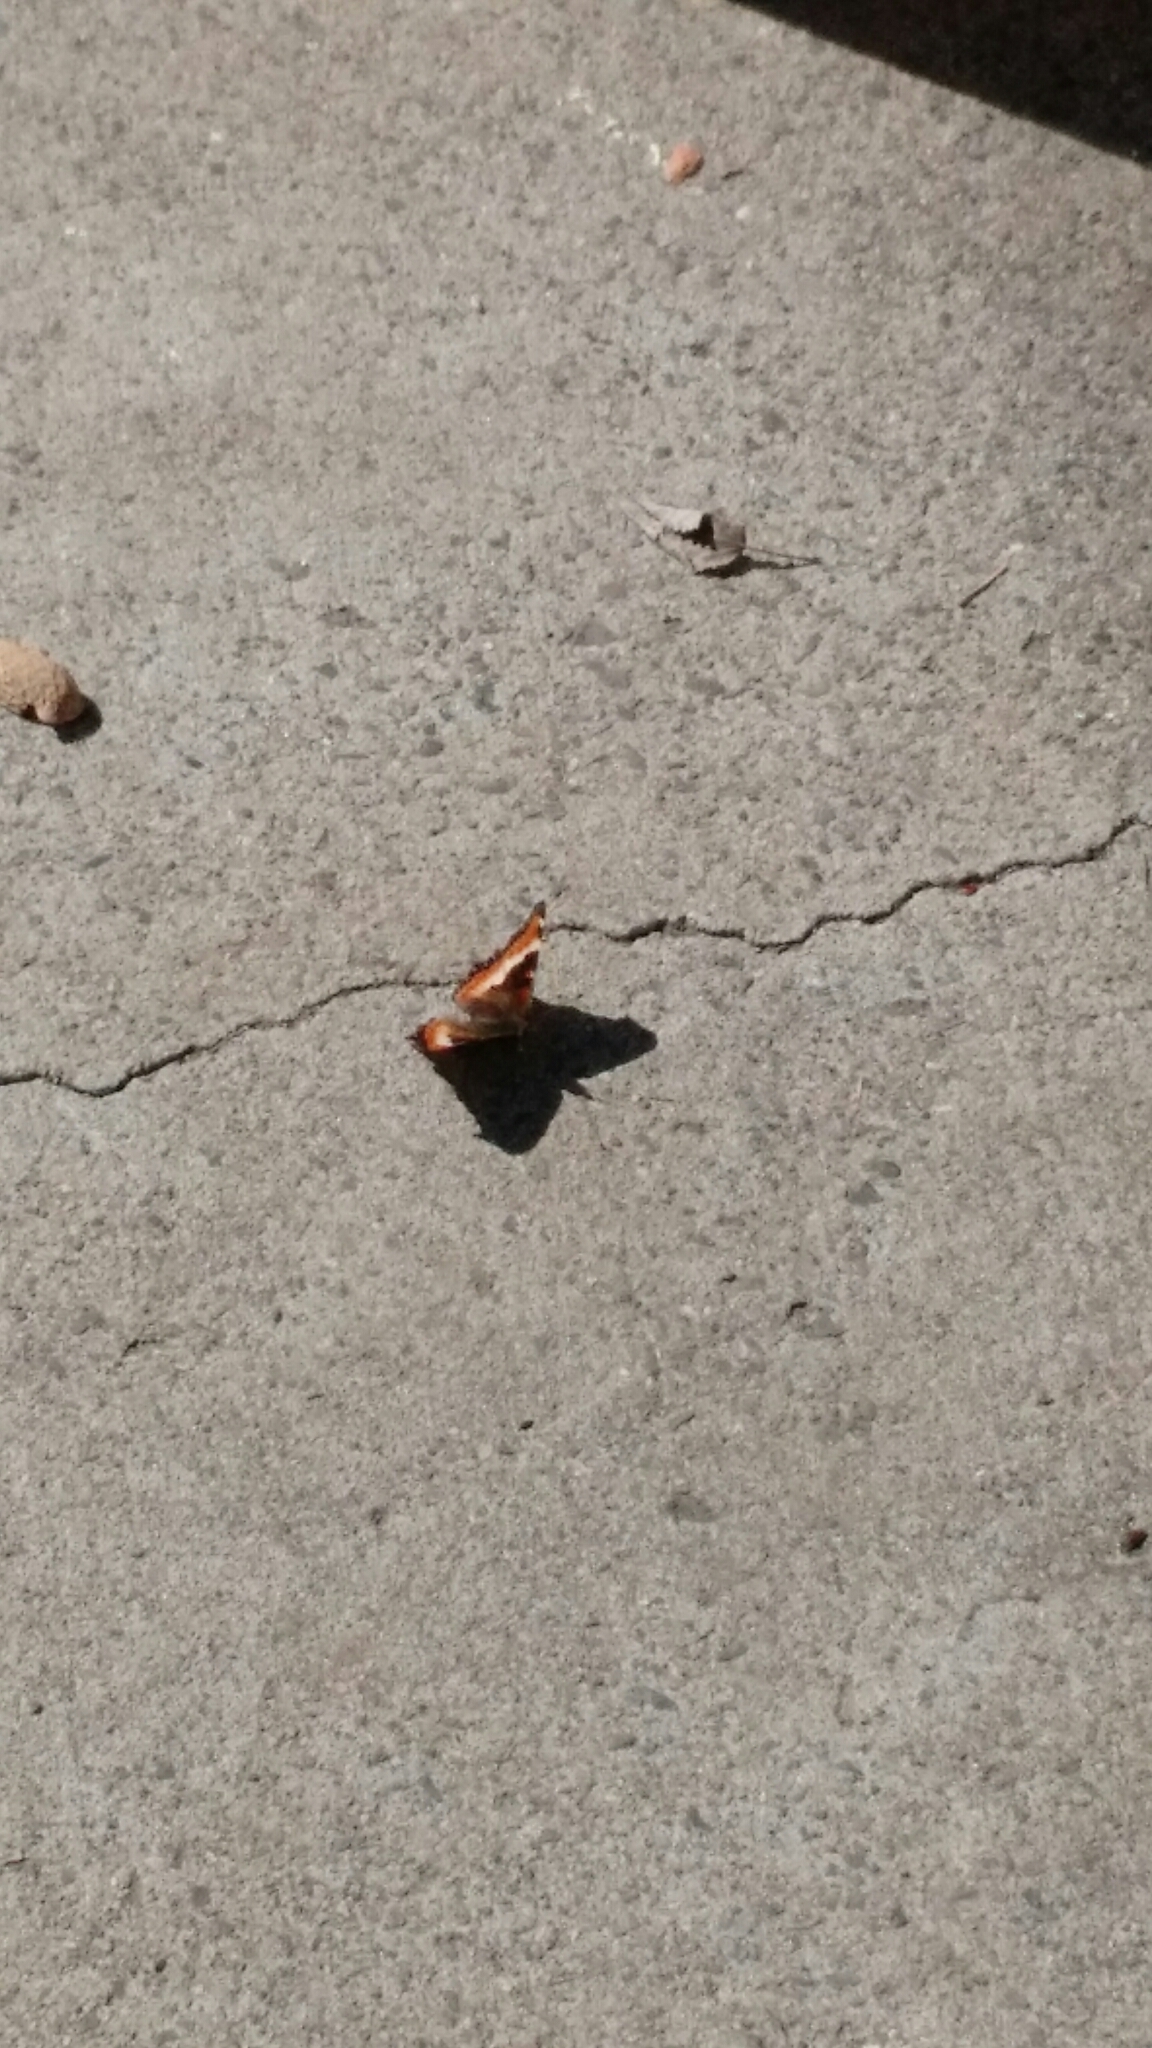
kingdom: Animalia
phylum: Arthropoda
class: Insecta
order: Lepidoptera
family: Nymphalidae
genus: Aglais
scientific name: Aglais milberti
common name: Milbert's tortoiseshell
